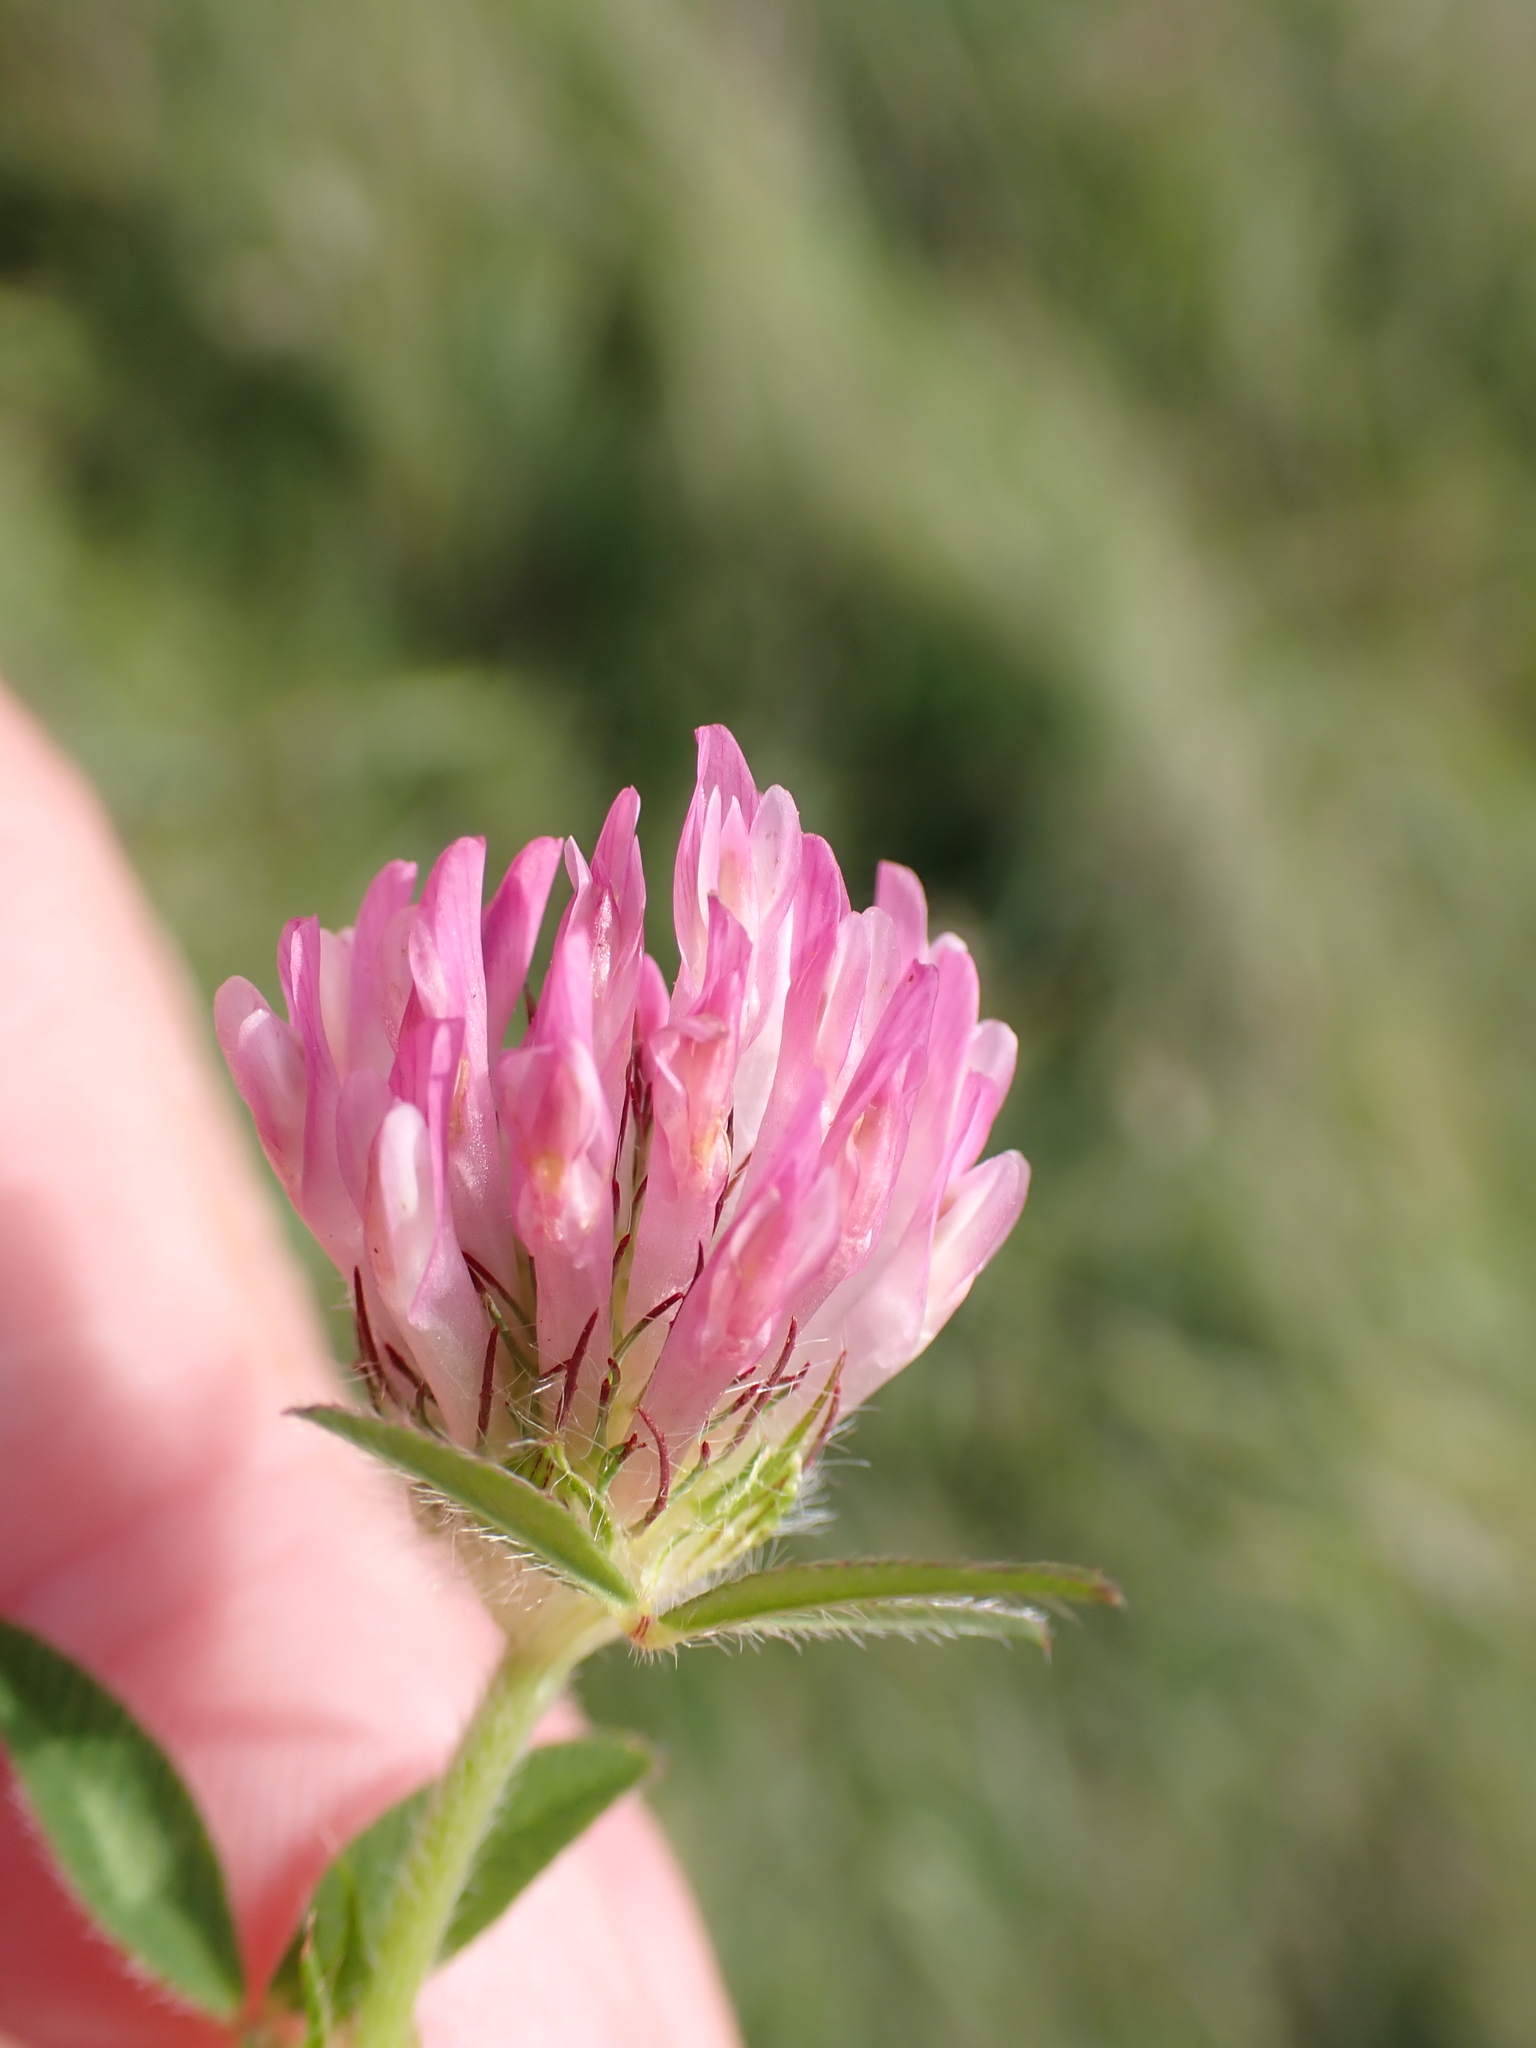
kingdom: Plantae
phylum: Tracheophyta
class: Magnoliopsida
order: Fabales
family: Fabaceae
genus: Trifolium
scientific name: Trifolium pratense
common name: Red clover
